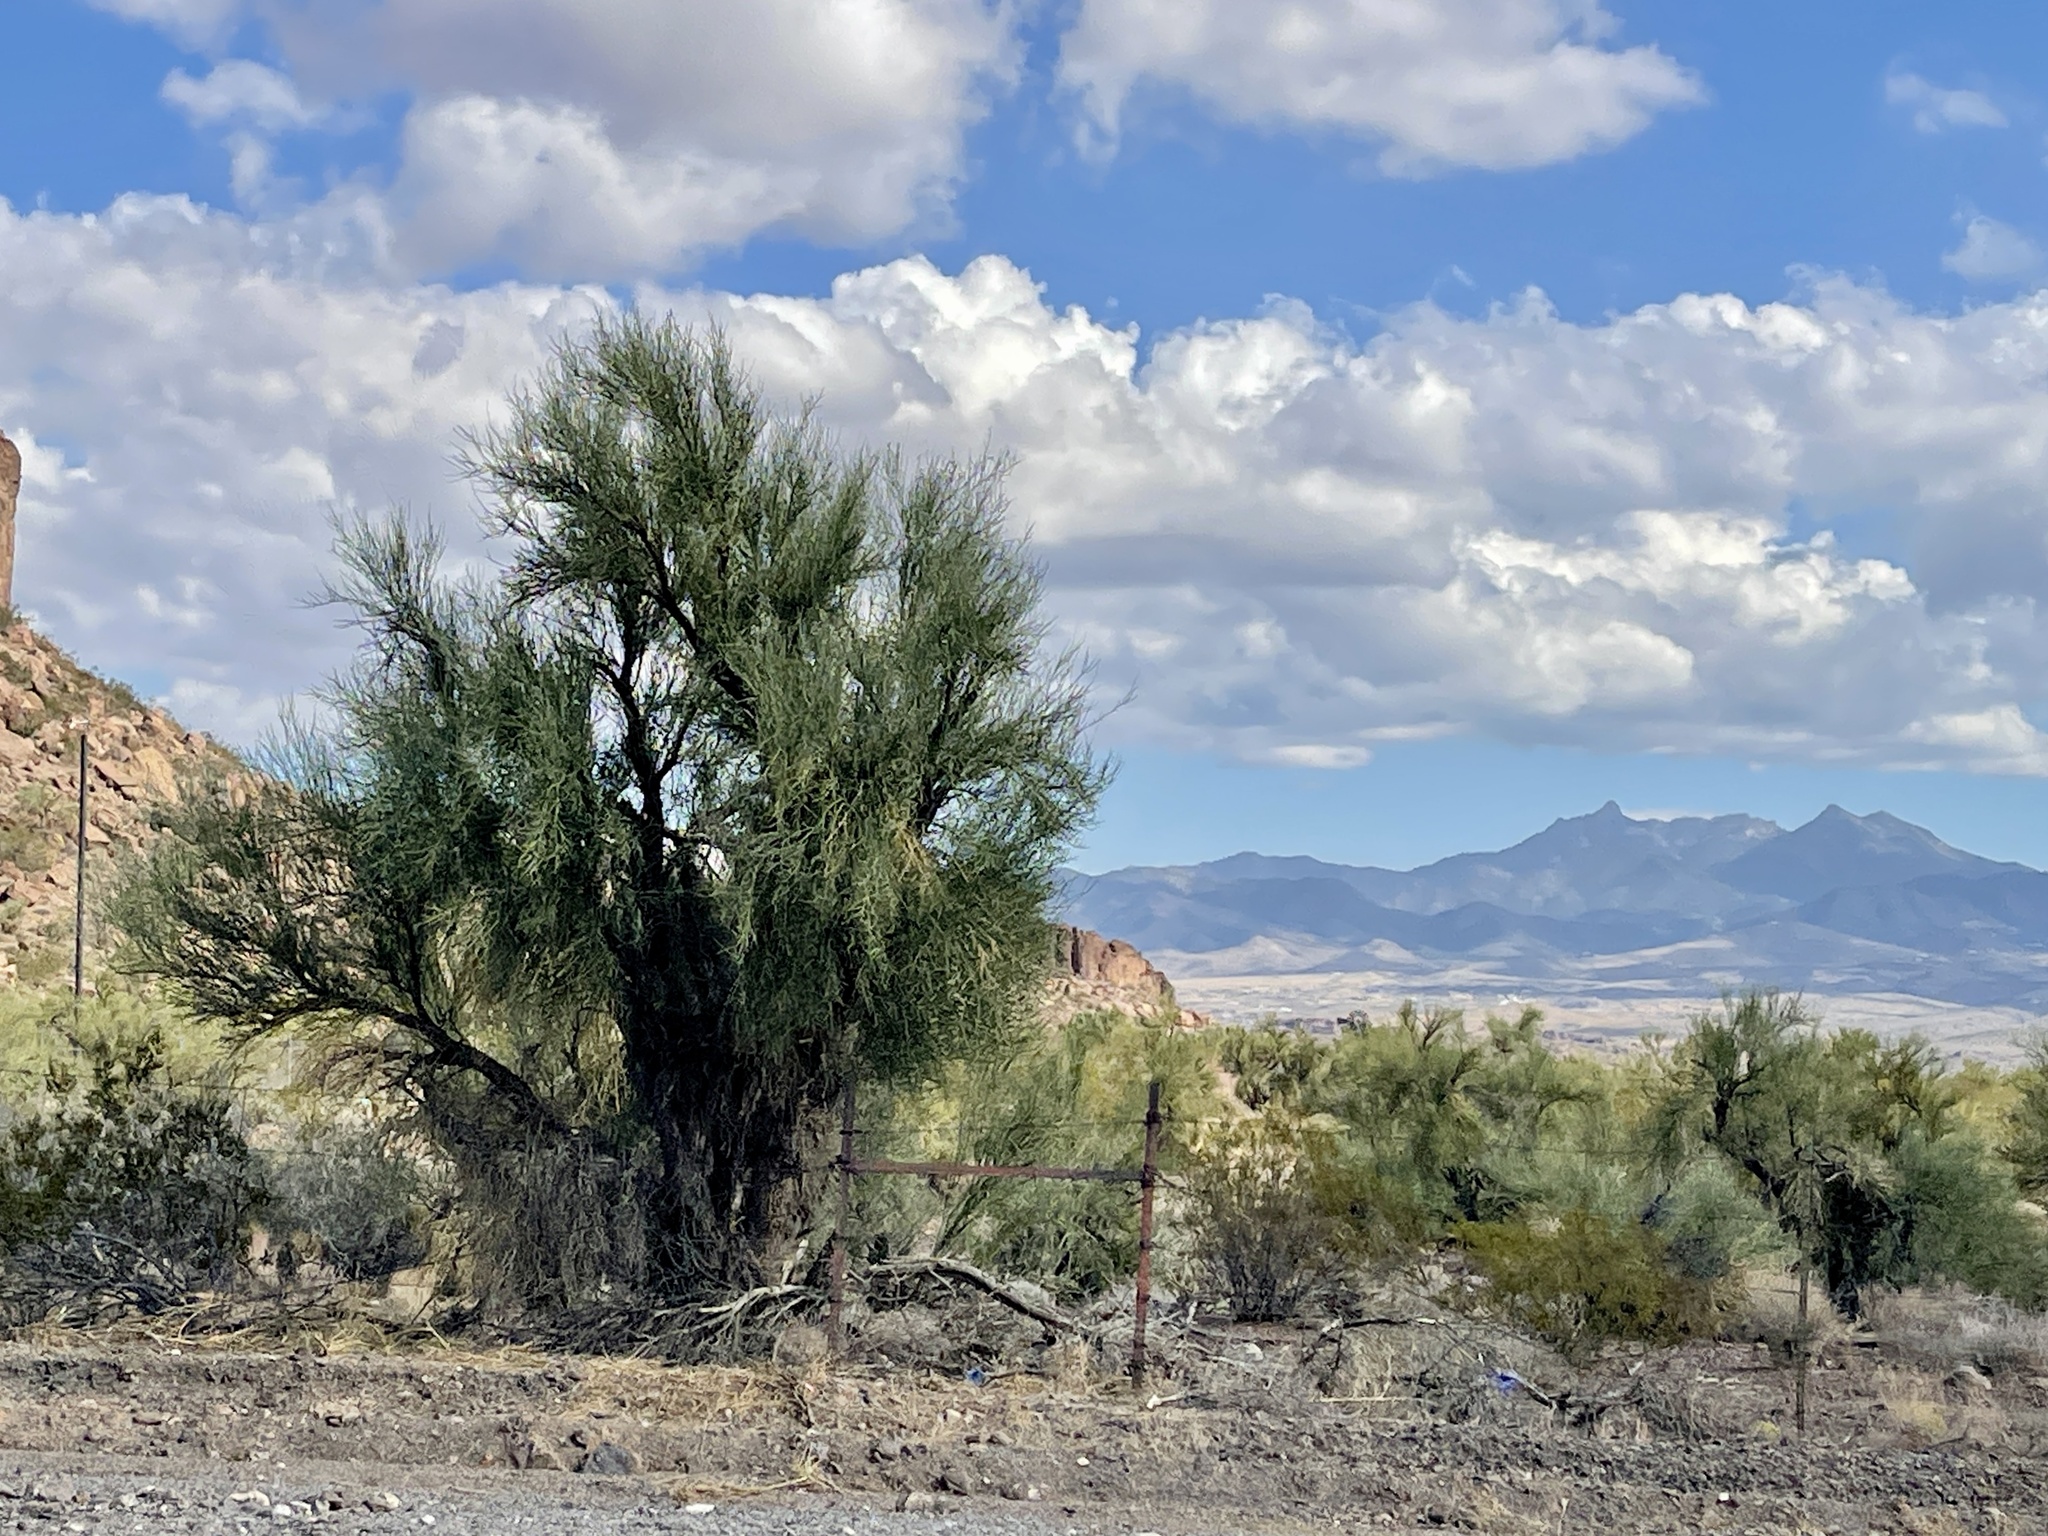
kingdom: Plantae
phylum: Tracheophyta
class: Magnoliopsida
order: Celastrales
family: Celastraceae
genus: Canotia
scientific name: Canotia holacantha
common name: Crucifixion thorns
